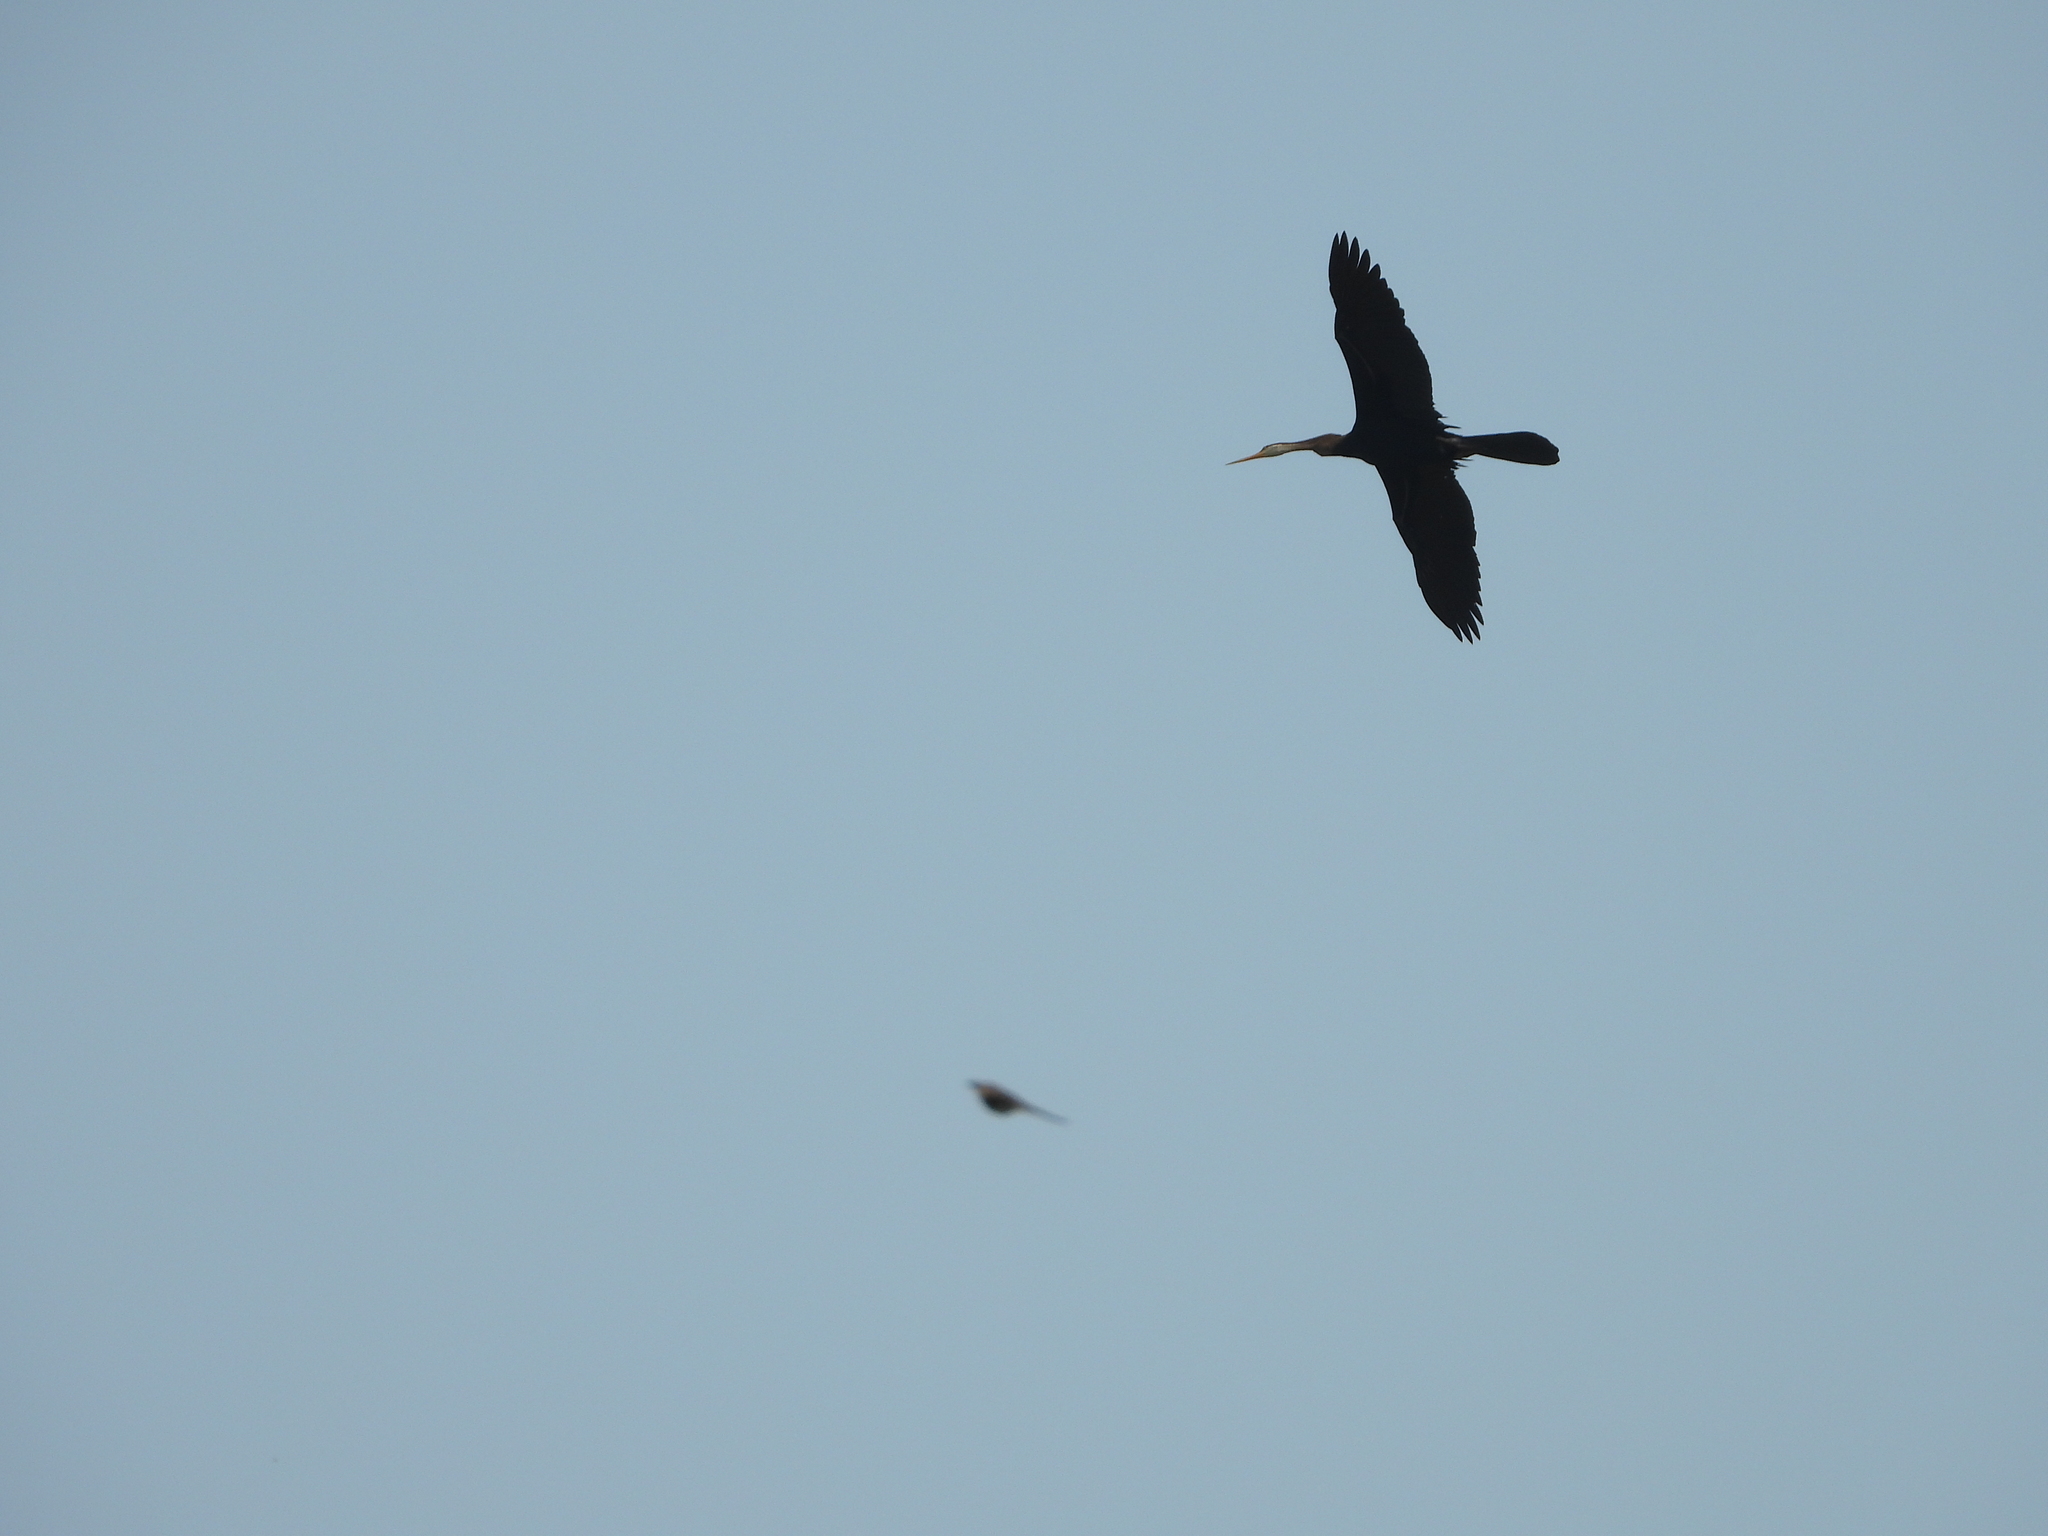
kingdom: Animalia
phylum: Chordata
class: Aves
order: Suliformes
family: Anhingidae
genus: Anhinga
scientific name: Anhinga melanogaster
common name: Oriental darter
